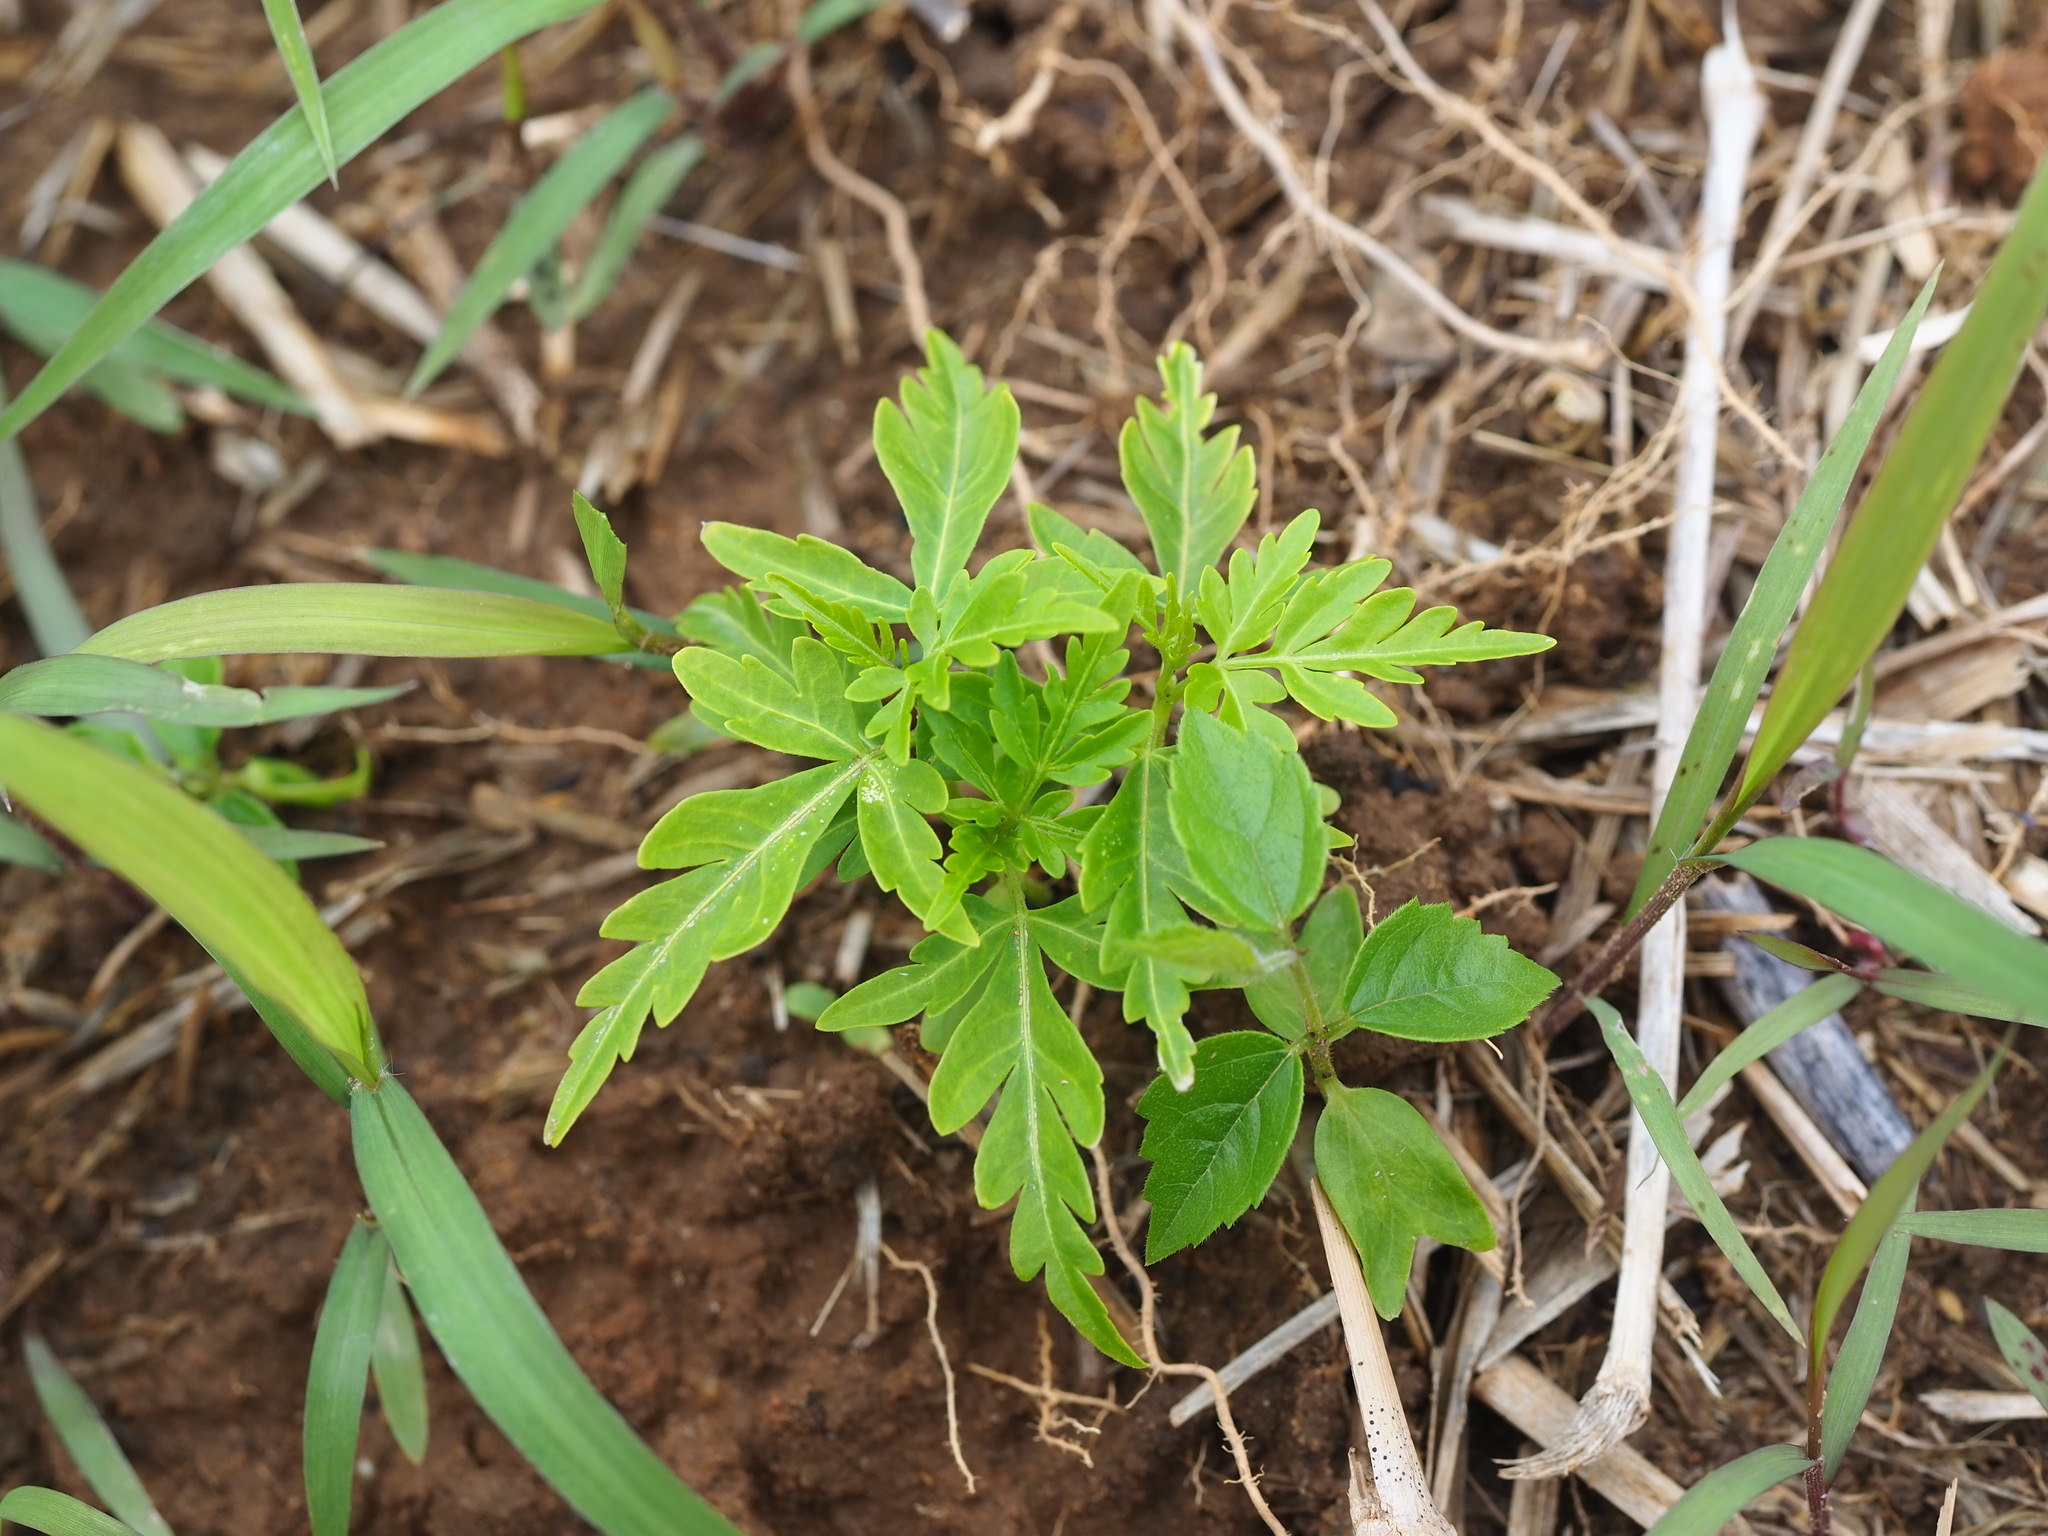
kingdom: Plantae
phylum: Tracheophyta
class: Magnoliopsida
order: Sapindales
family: Meliaceae
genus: Melia
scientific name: Melia azedarach
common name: Chinaberrytree
